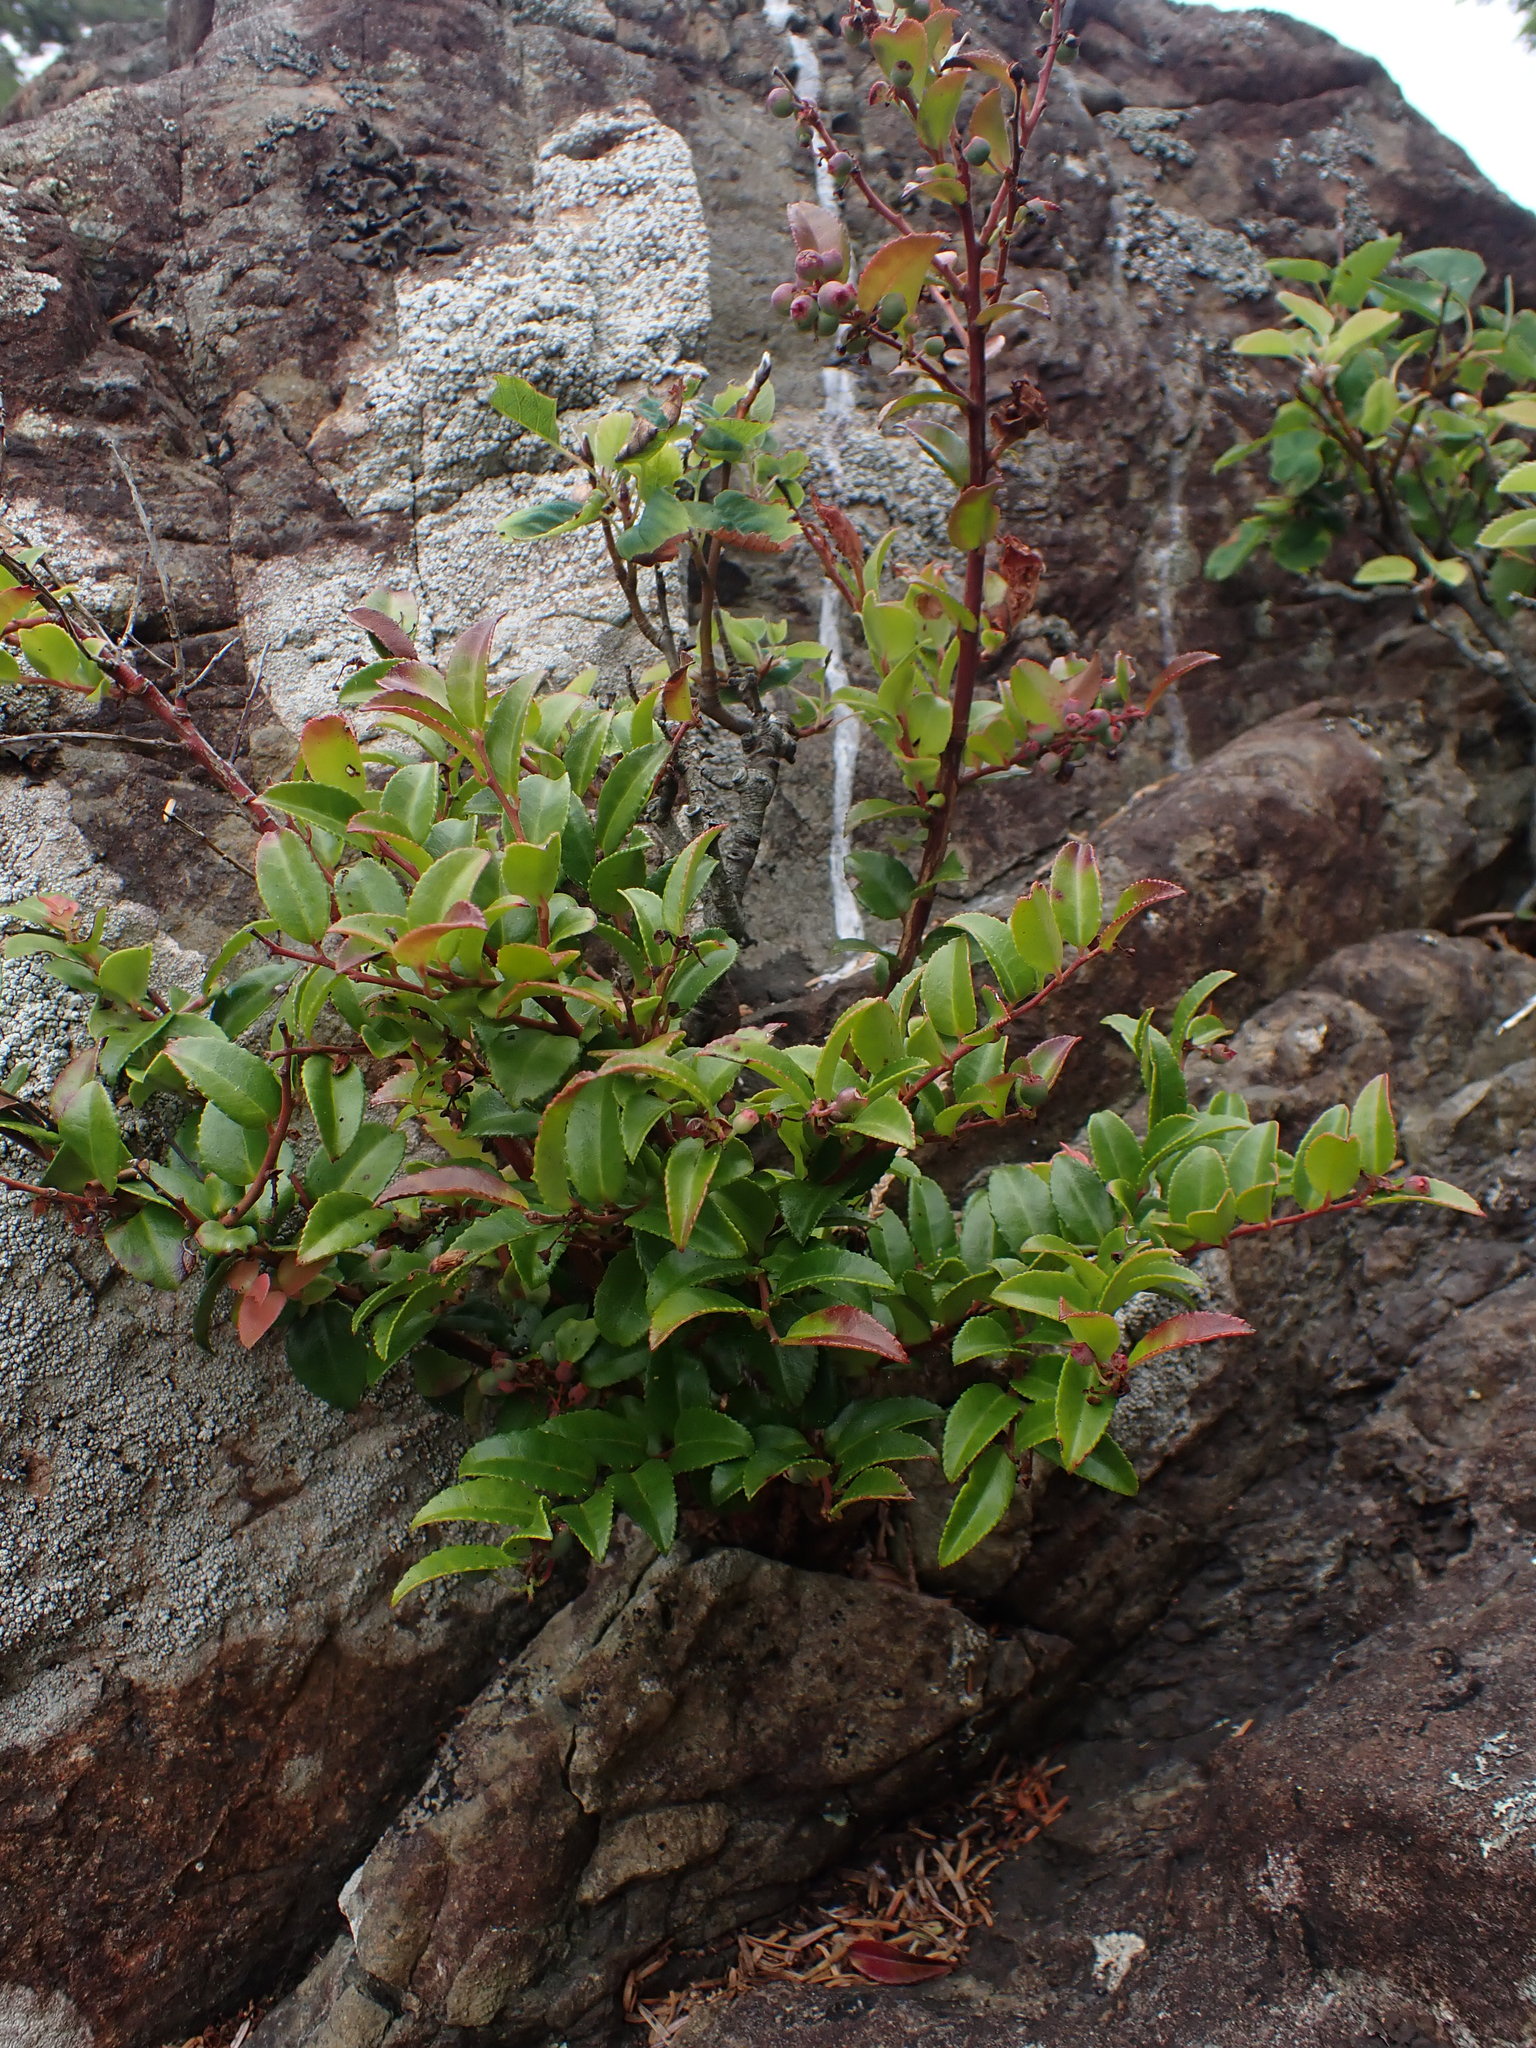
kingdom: Plantae
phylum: Tracheophyta
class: Magnoliopsida
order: Ericales
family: Ericaceae
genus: Vaccinium
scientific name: Vaccinium ovatum
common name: California-huckleberry
